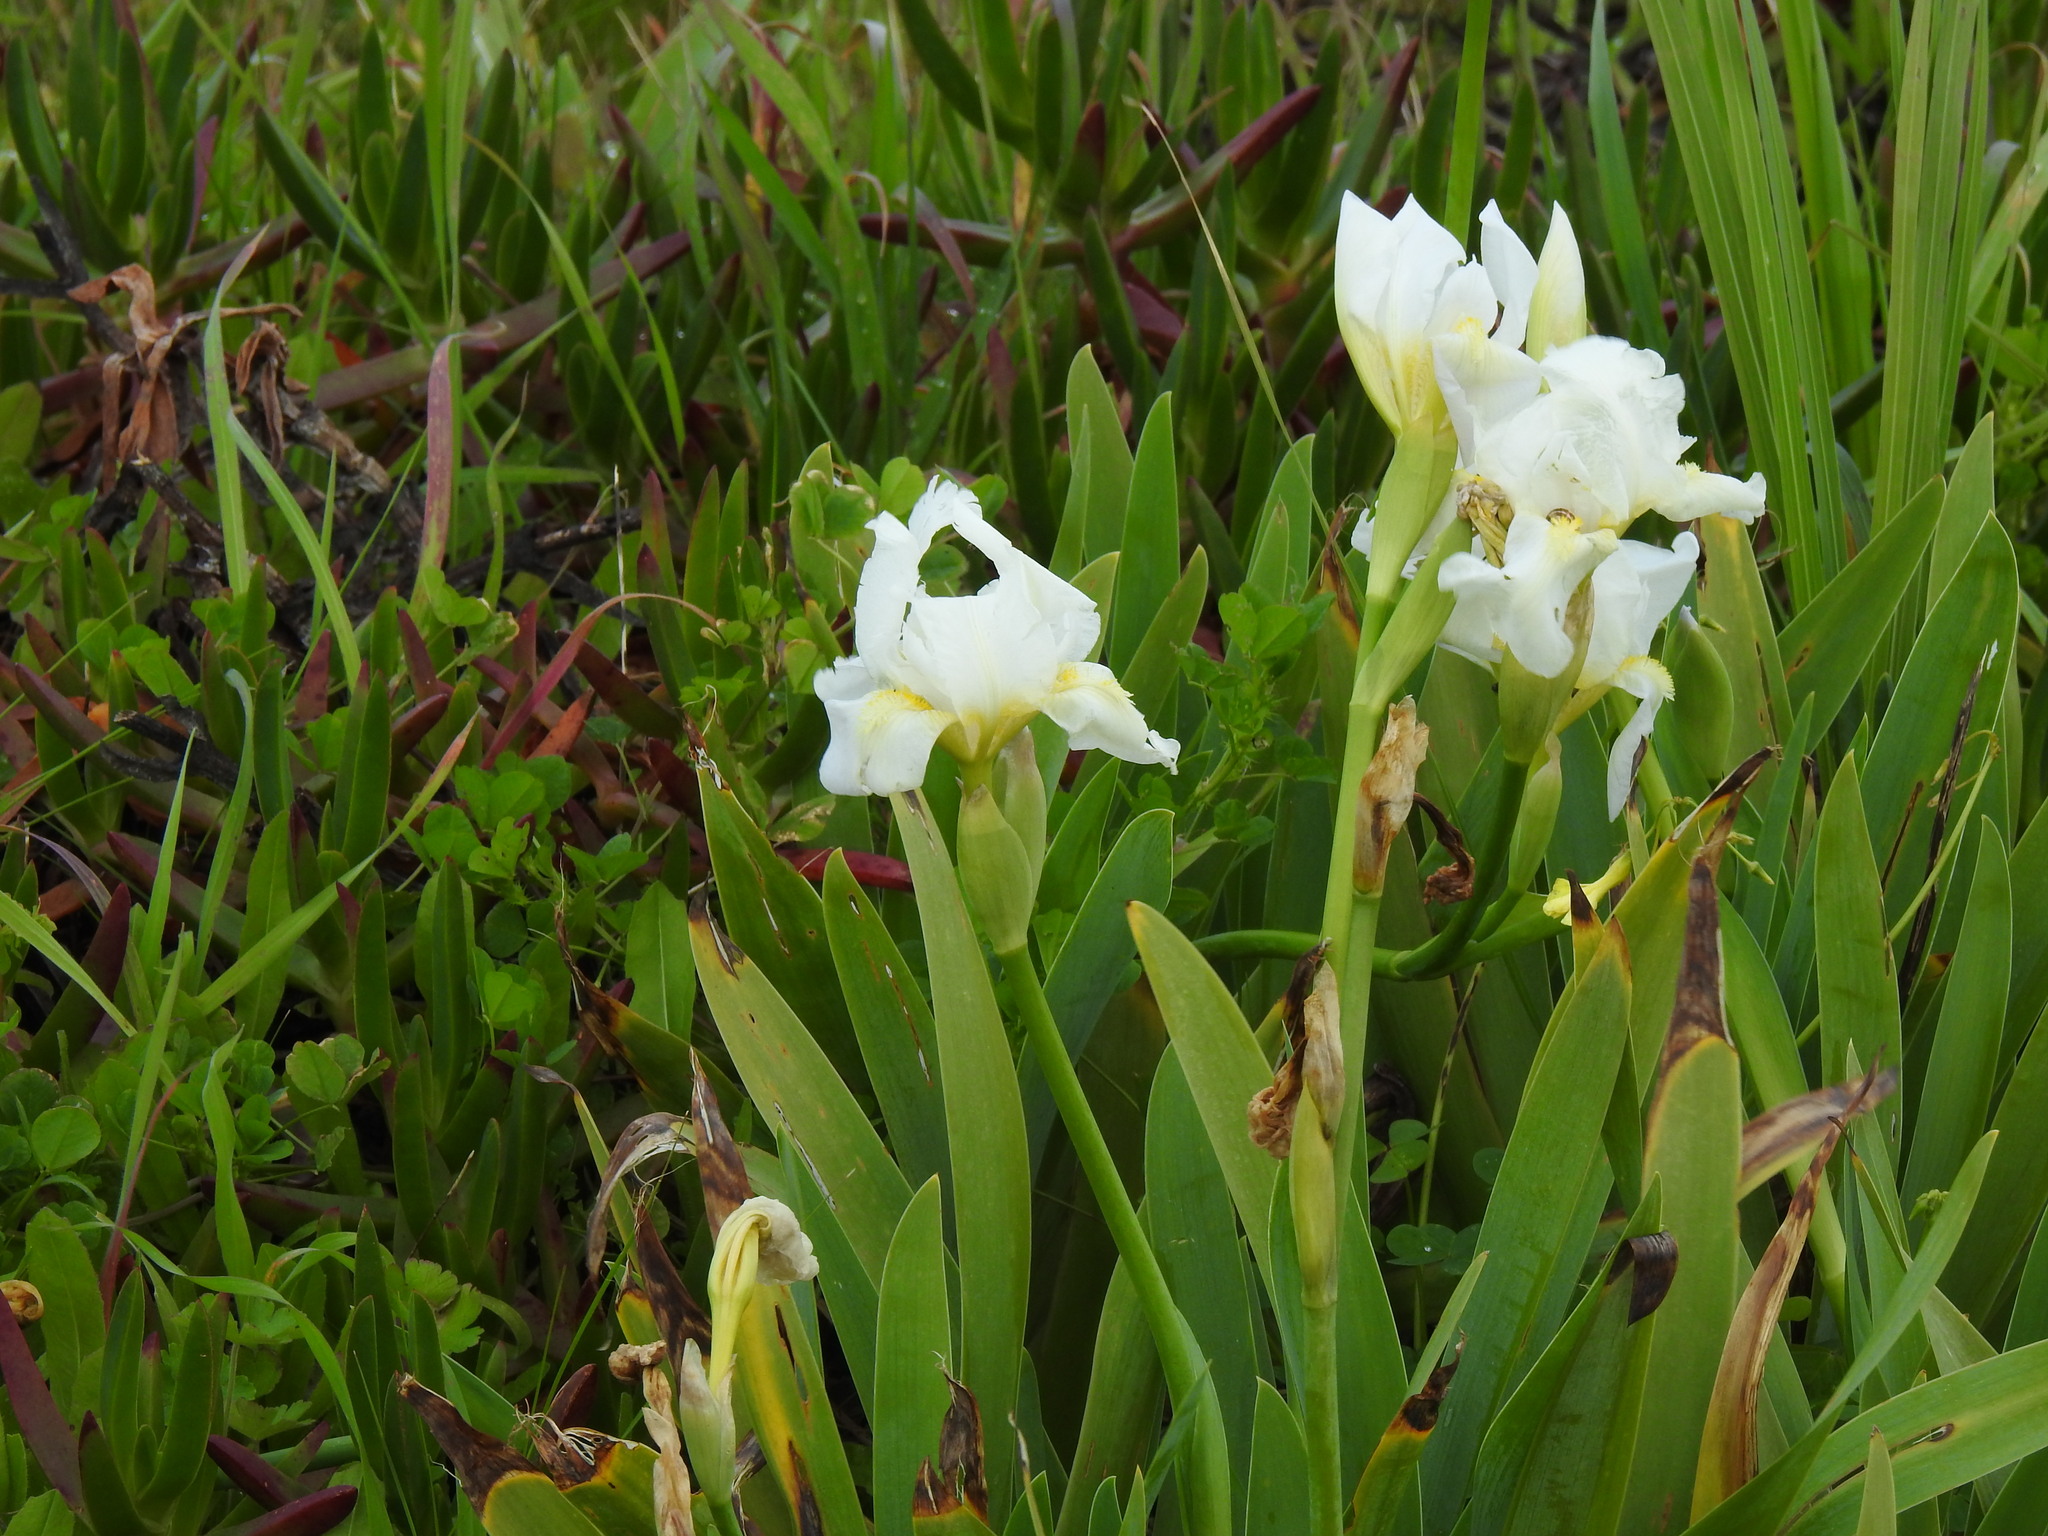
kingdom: Plantae
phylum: Tracheophyta
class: Liliopsida
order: Asparagales
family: Iridaceae
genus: Iris
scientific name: Iris florentina
